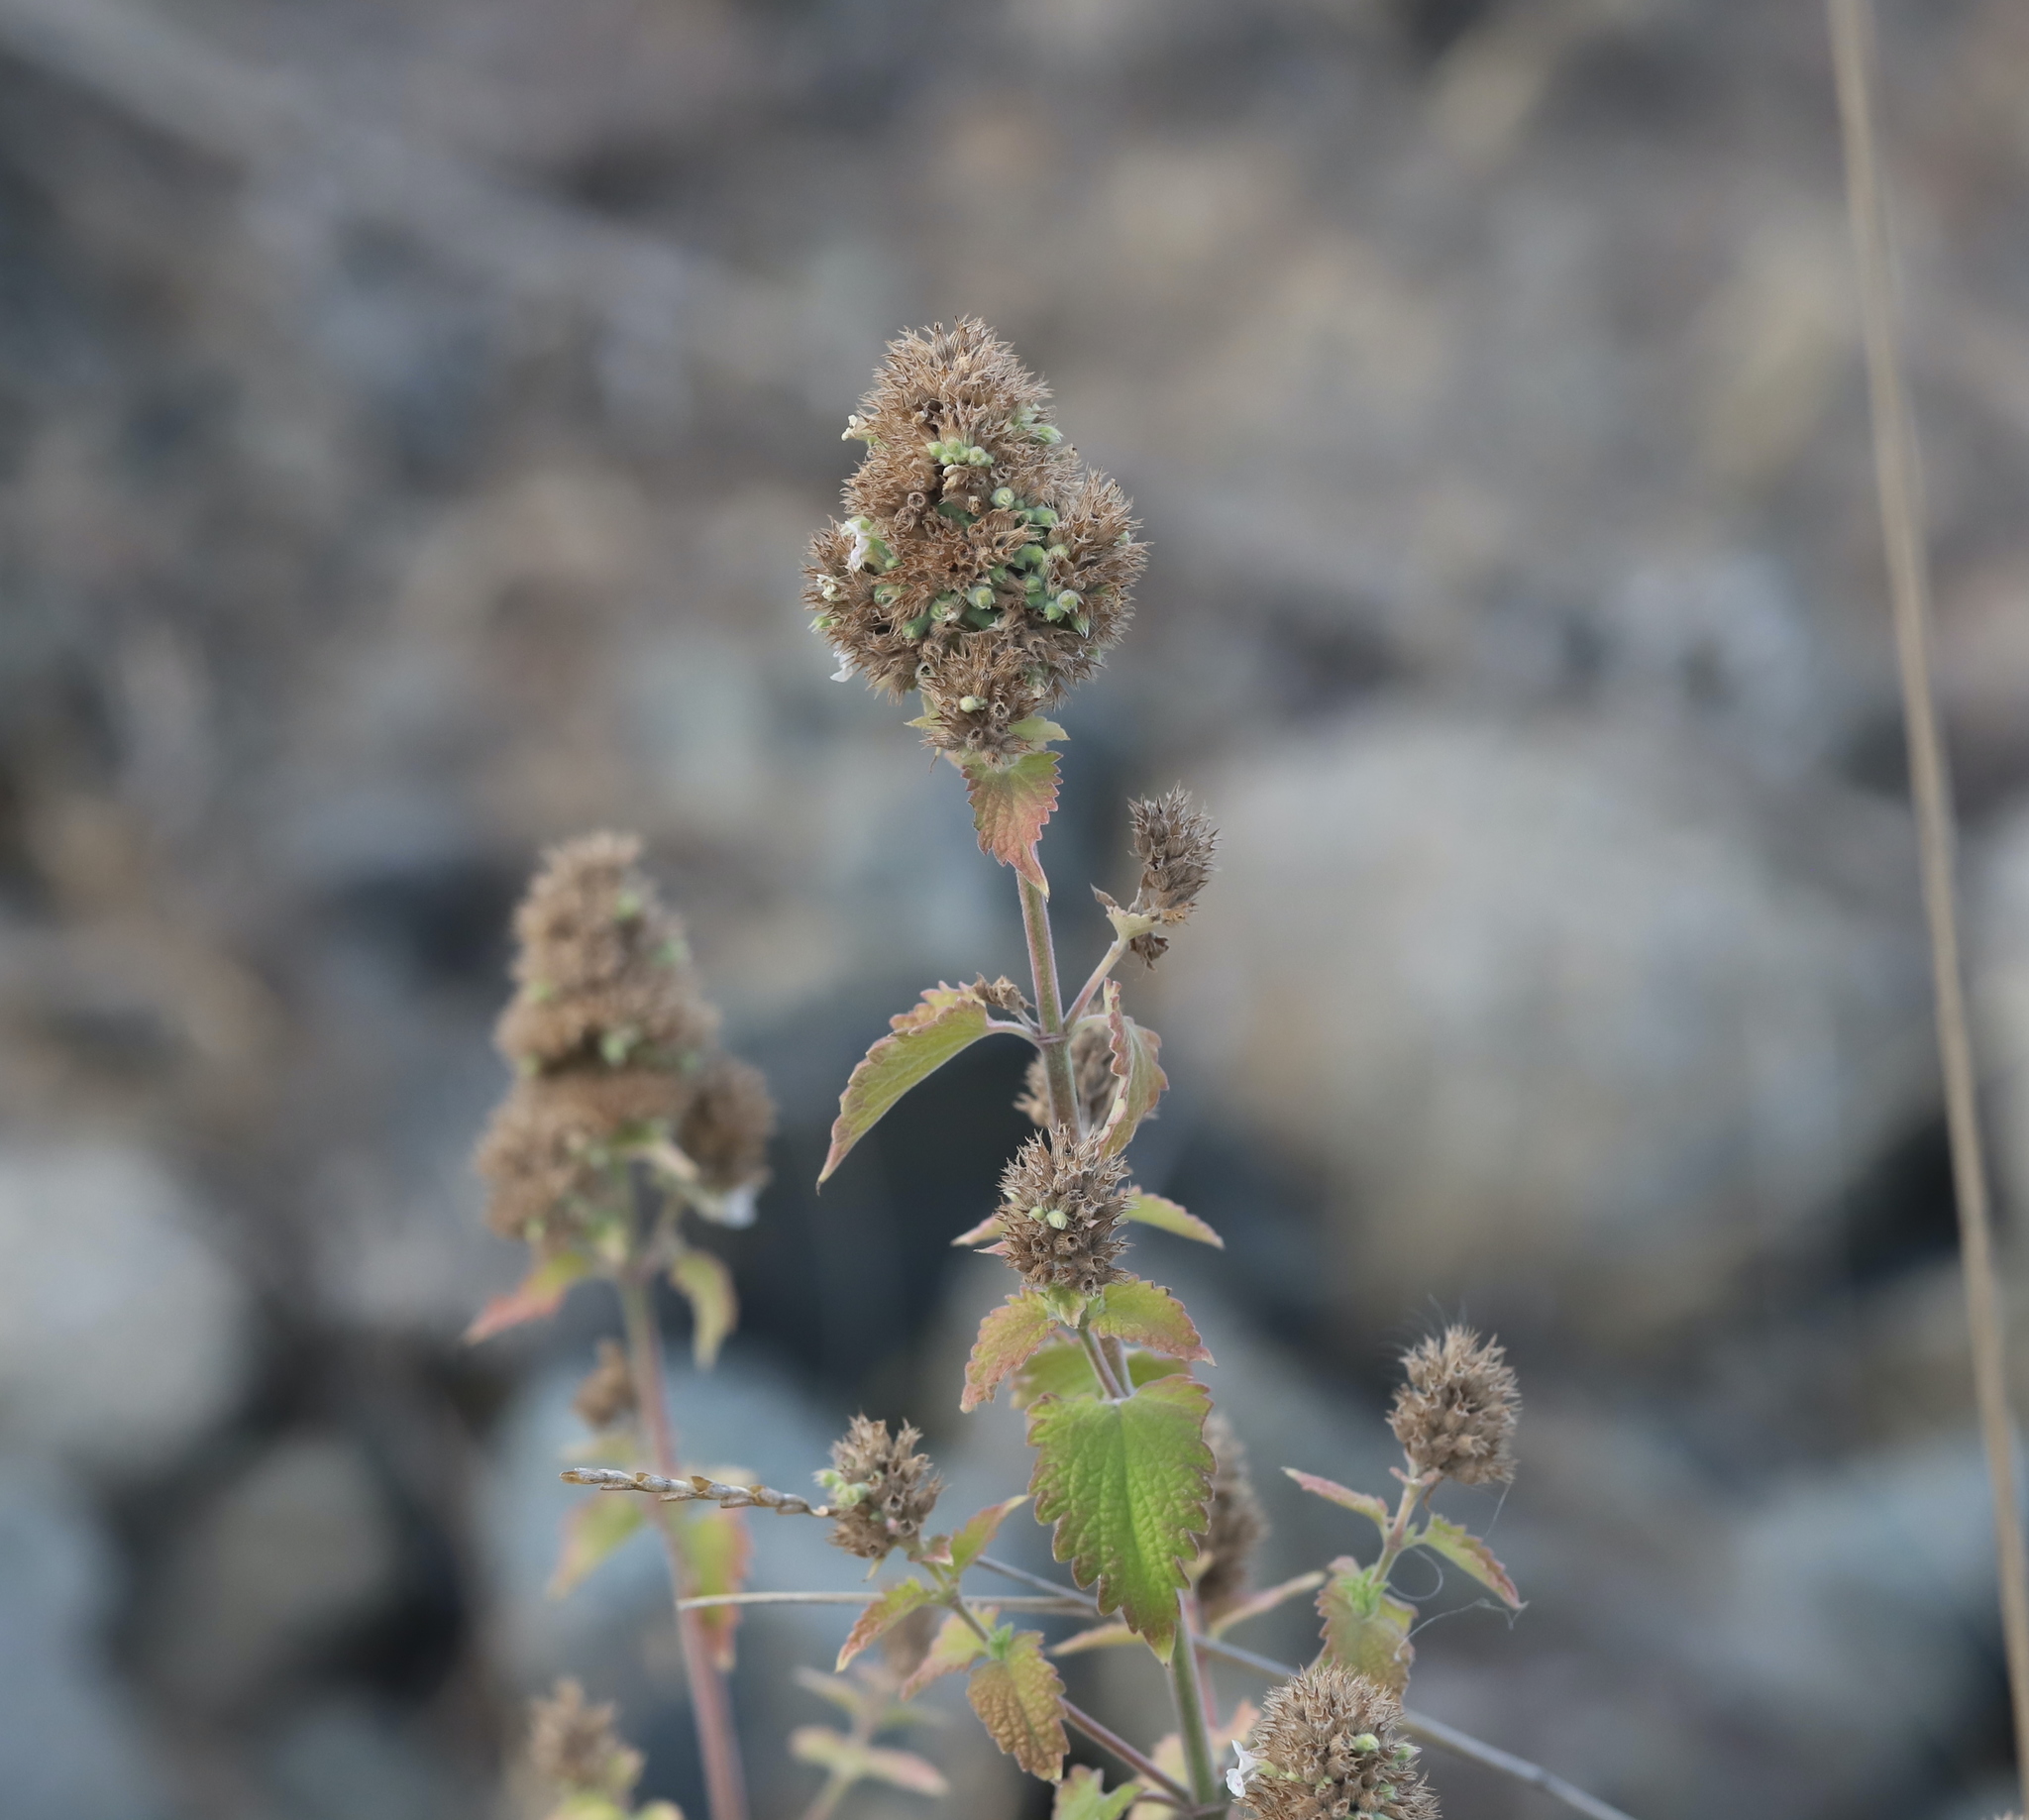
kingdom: Plantae
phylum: Tracheophyta
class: Magnoliopsida
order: Lamiales
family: Lamiaceae
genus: Nepeta
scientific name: Nepeta cataria
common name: Catnip
